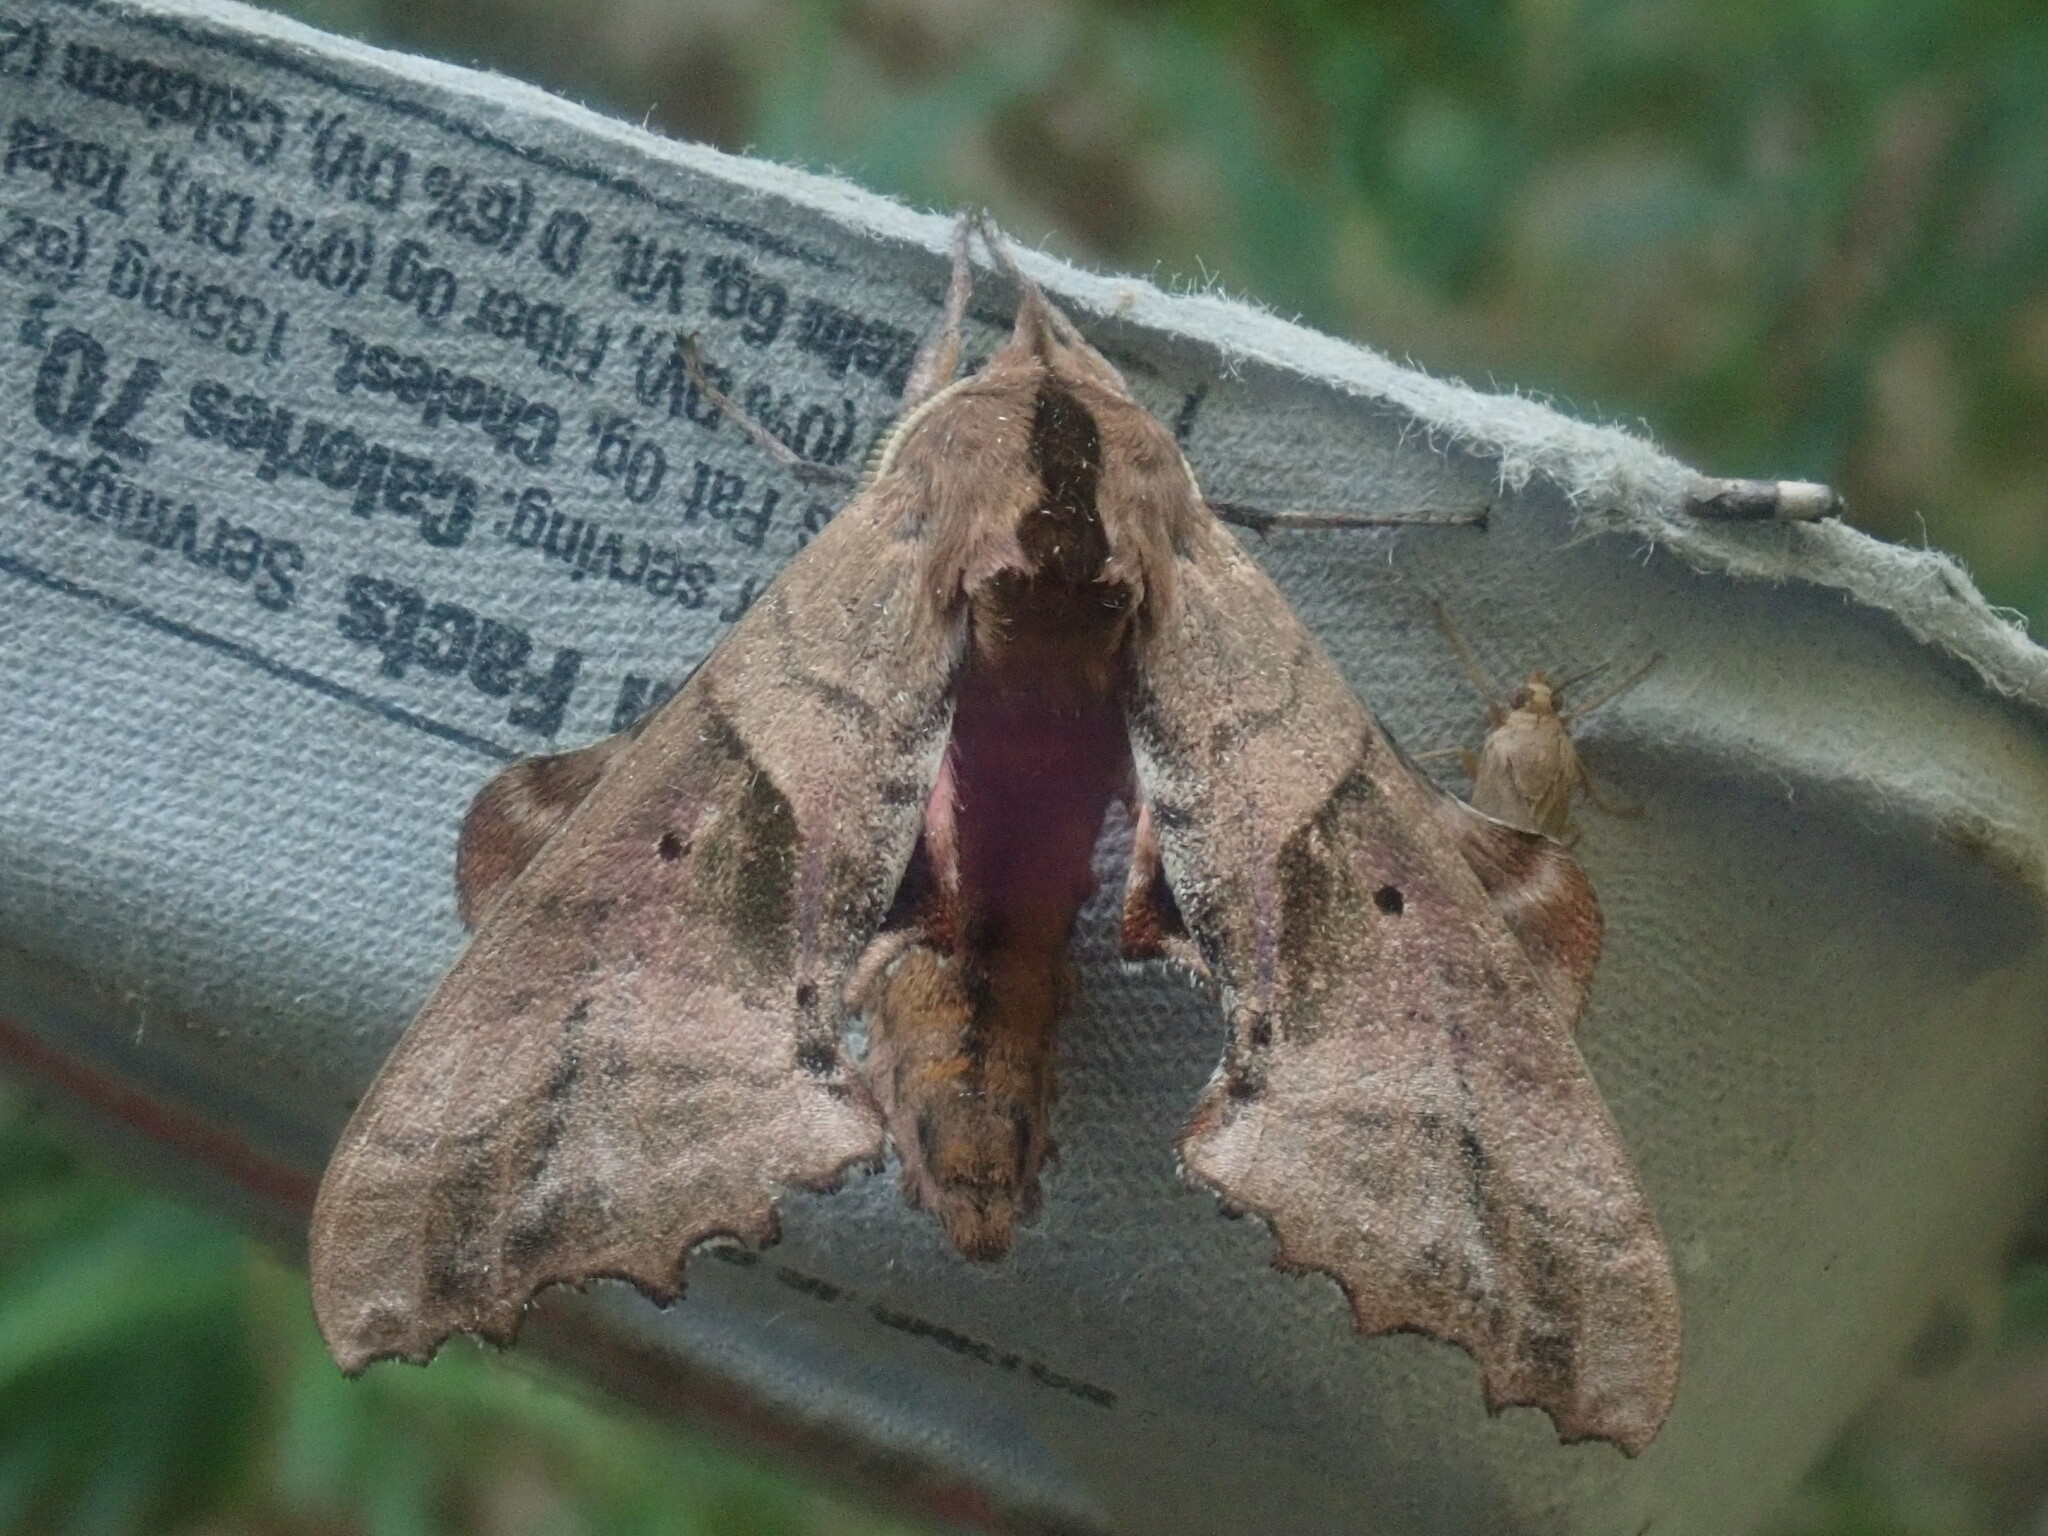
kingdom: Animalia
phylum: Arthropoda
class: Insecta
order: Lepidoptera
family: Sphingidae
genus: Paonias
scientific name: Paonias excaecata
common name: Blind-eyed sphinx
